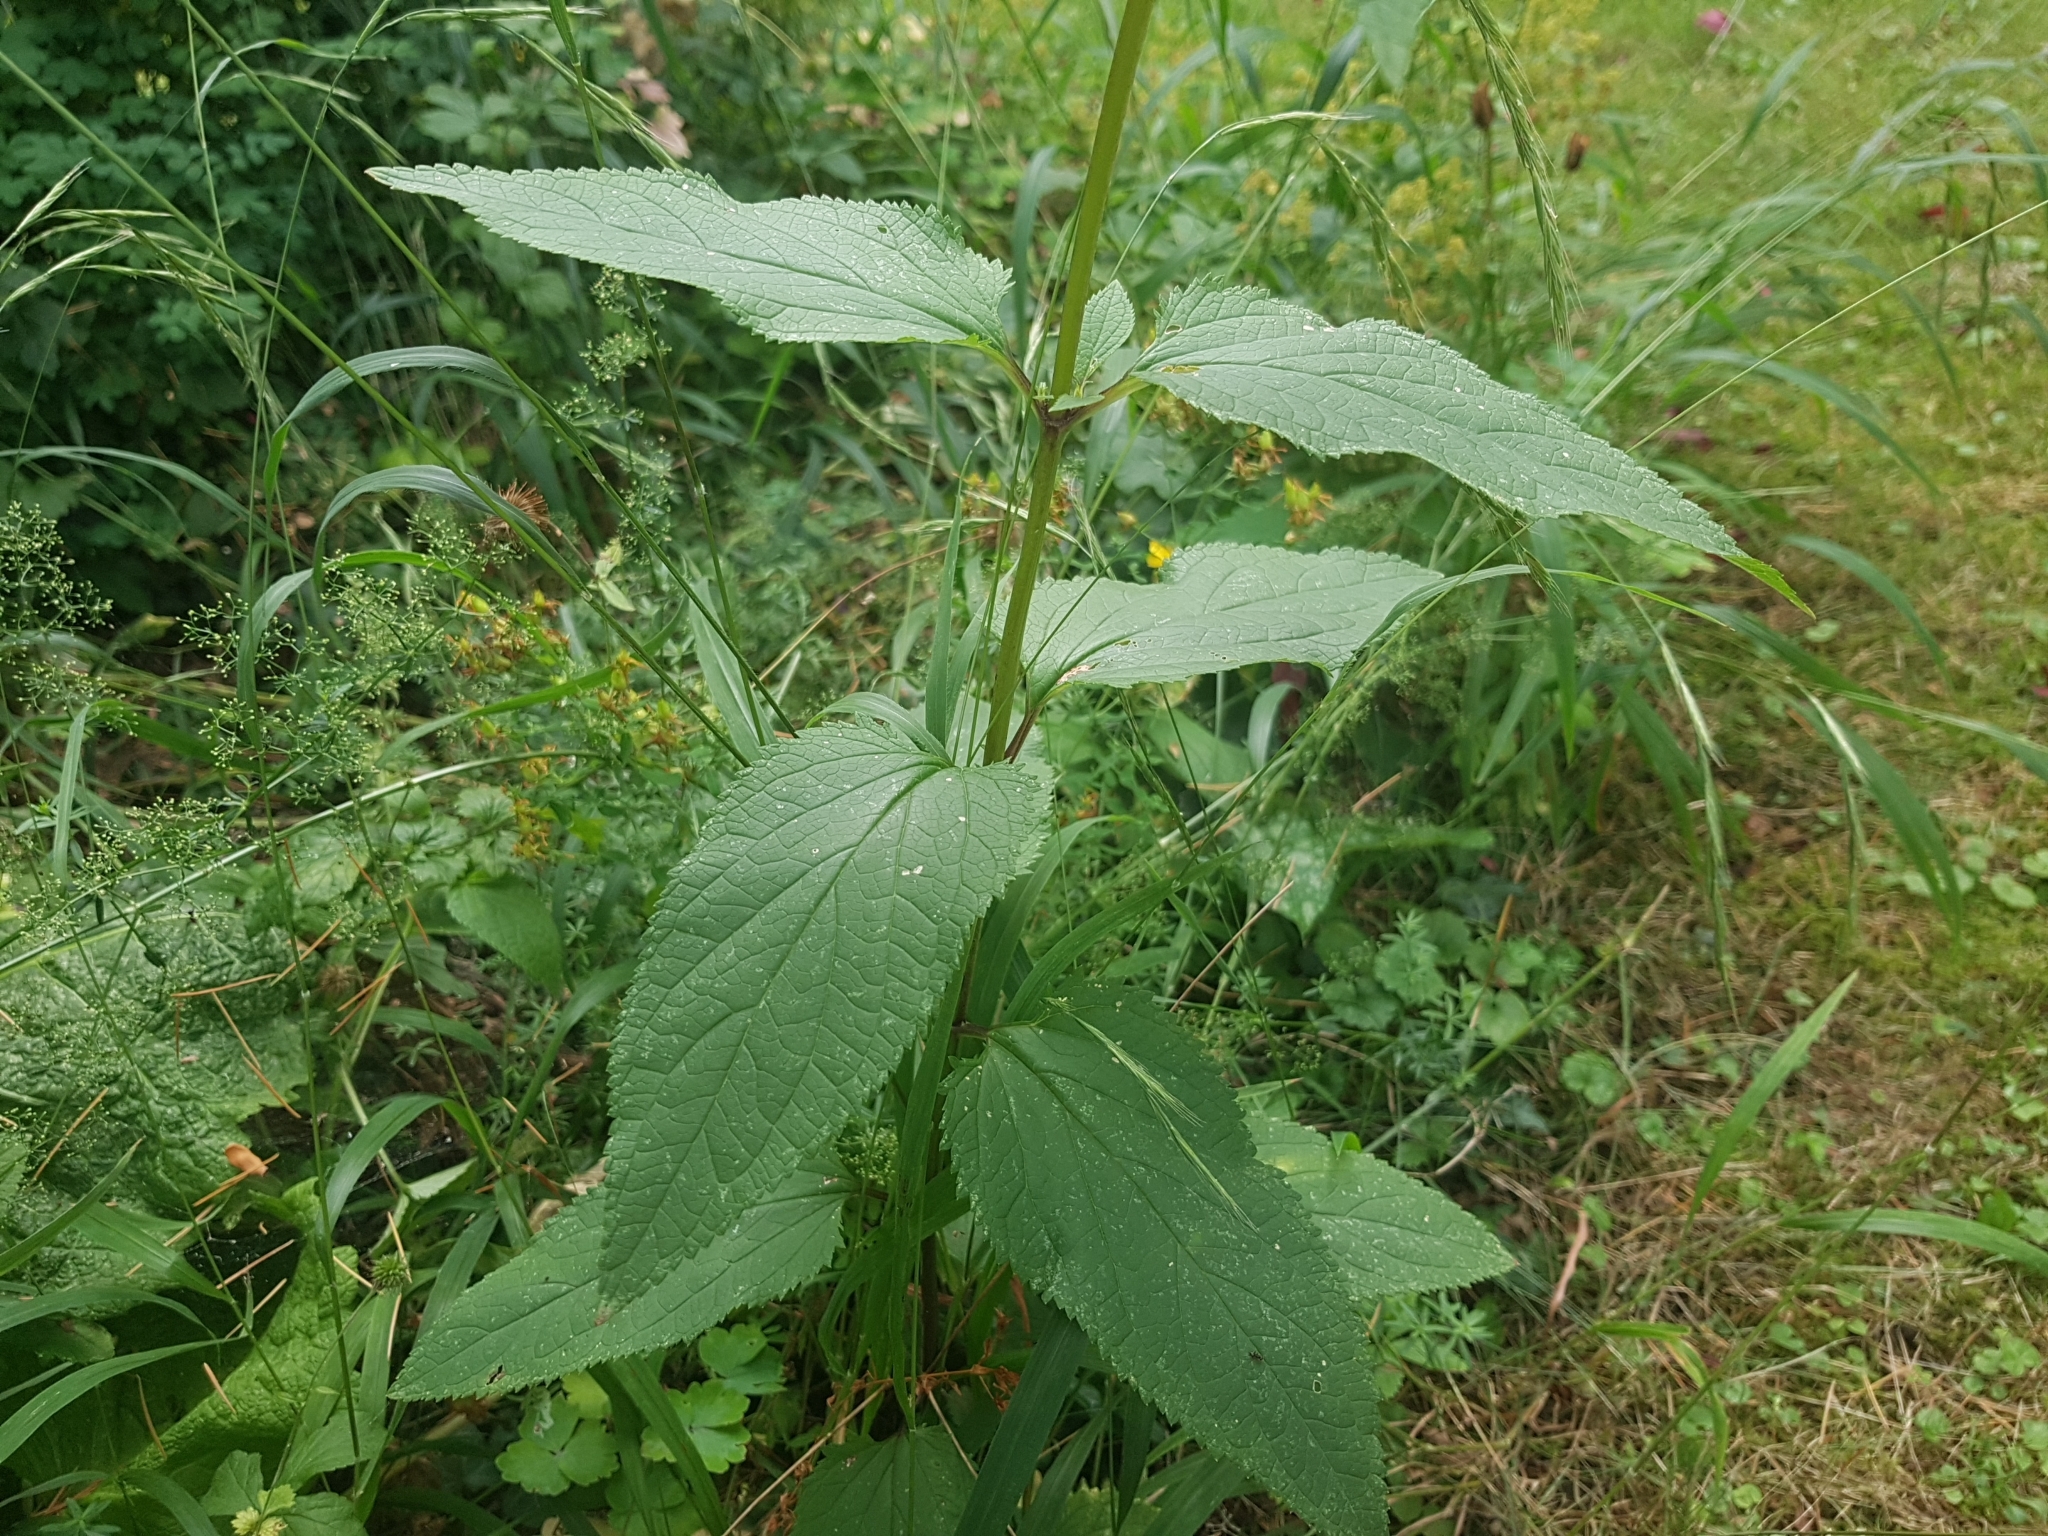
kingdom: Plantae
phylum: Tracheophyta
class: Magnoliopsida
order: Lamiales
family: Scrophulariaceae
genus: Scrophularia
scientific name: Scrophularia nodosa
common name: Common figwort
